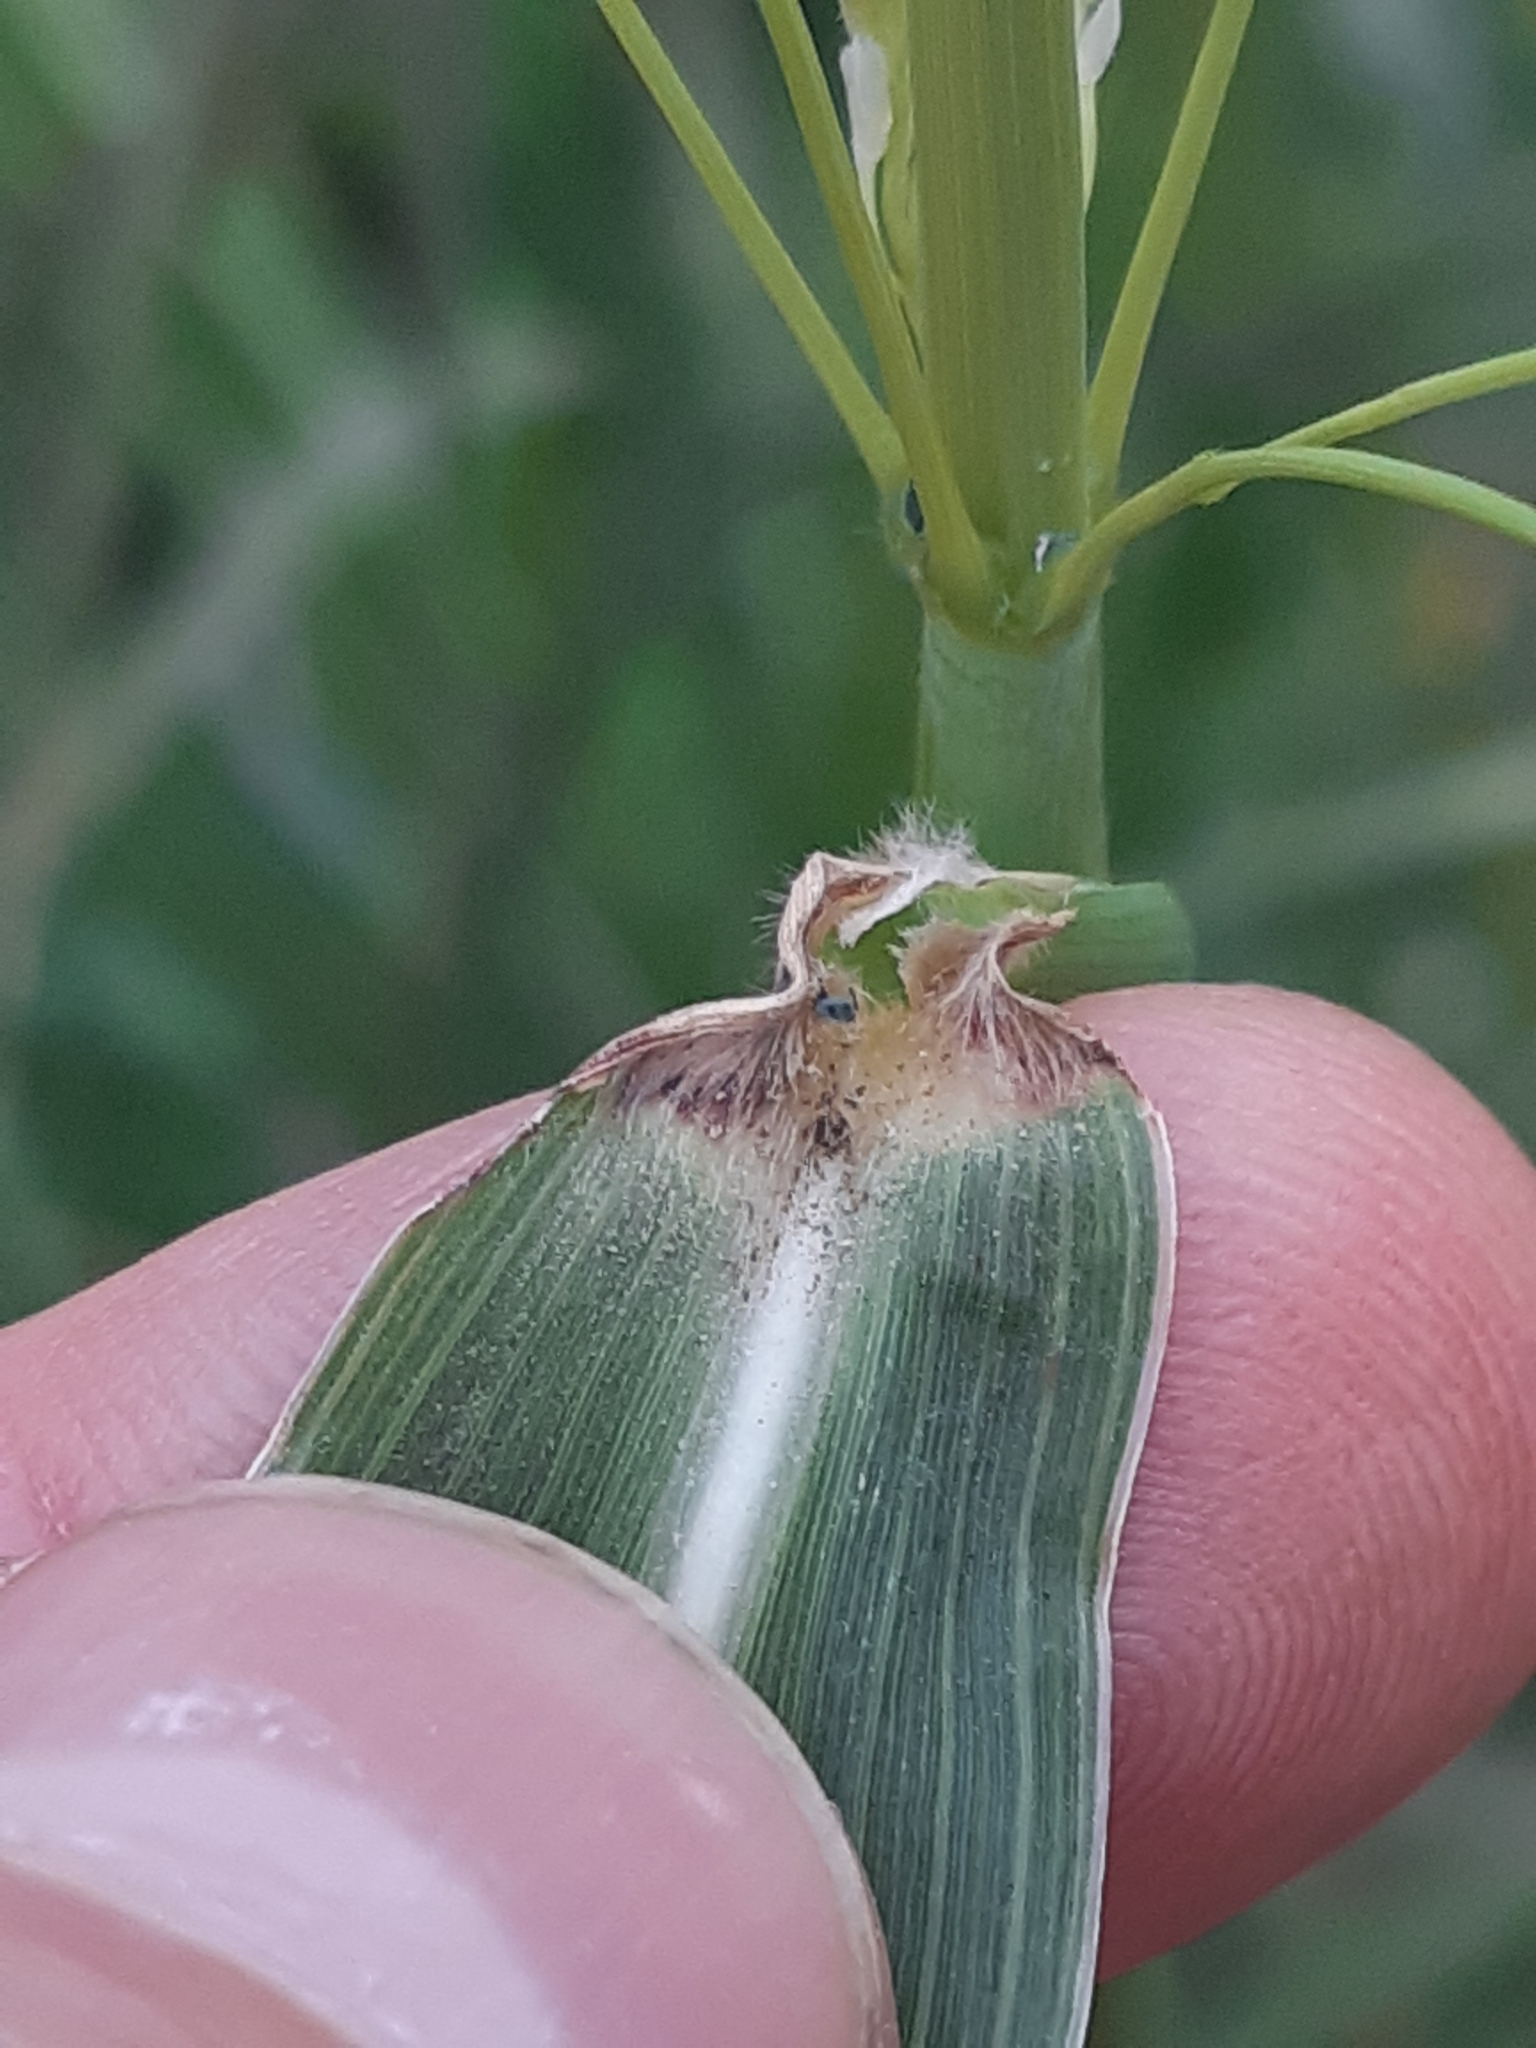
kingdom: Plantae
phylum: Tracheophyta
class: Liliopsida
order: Poales
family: Poaceae
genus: Sorghum
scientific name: Sorghum halepense
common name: Johnson-grass
